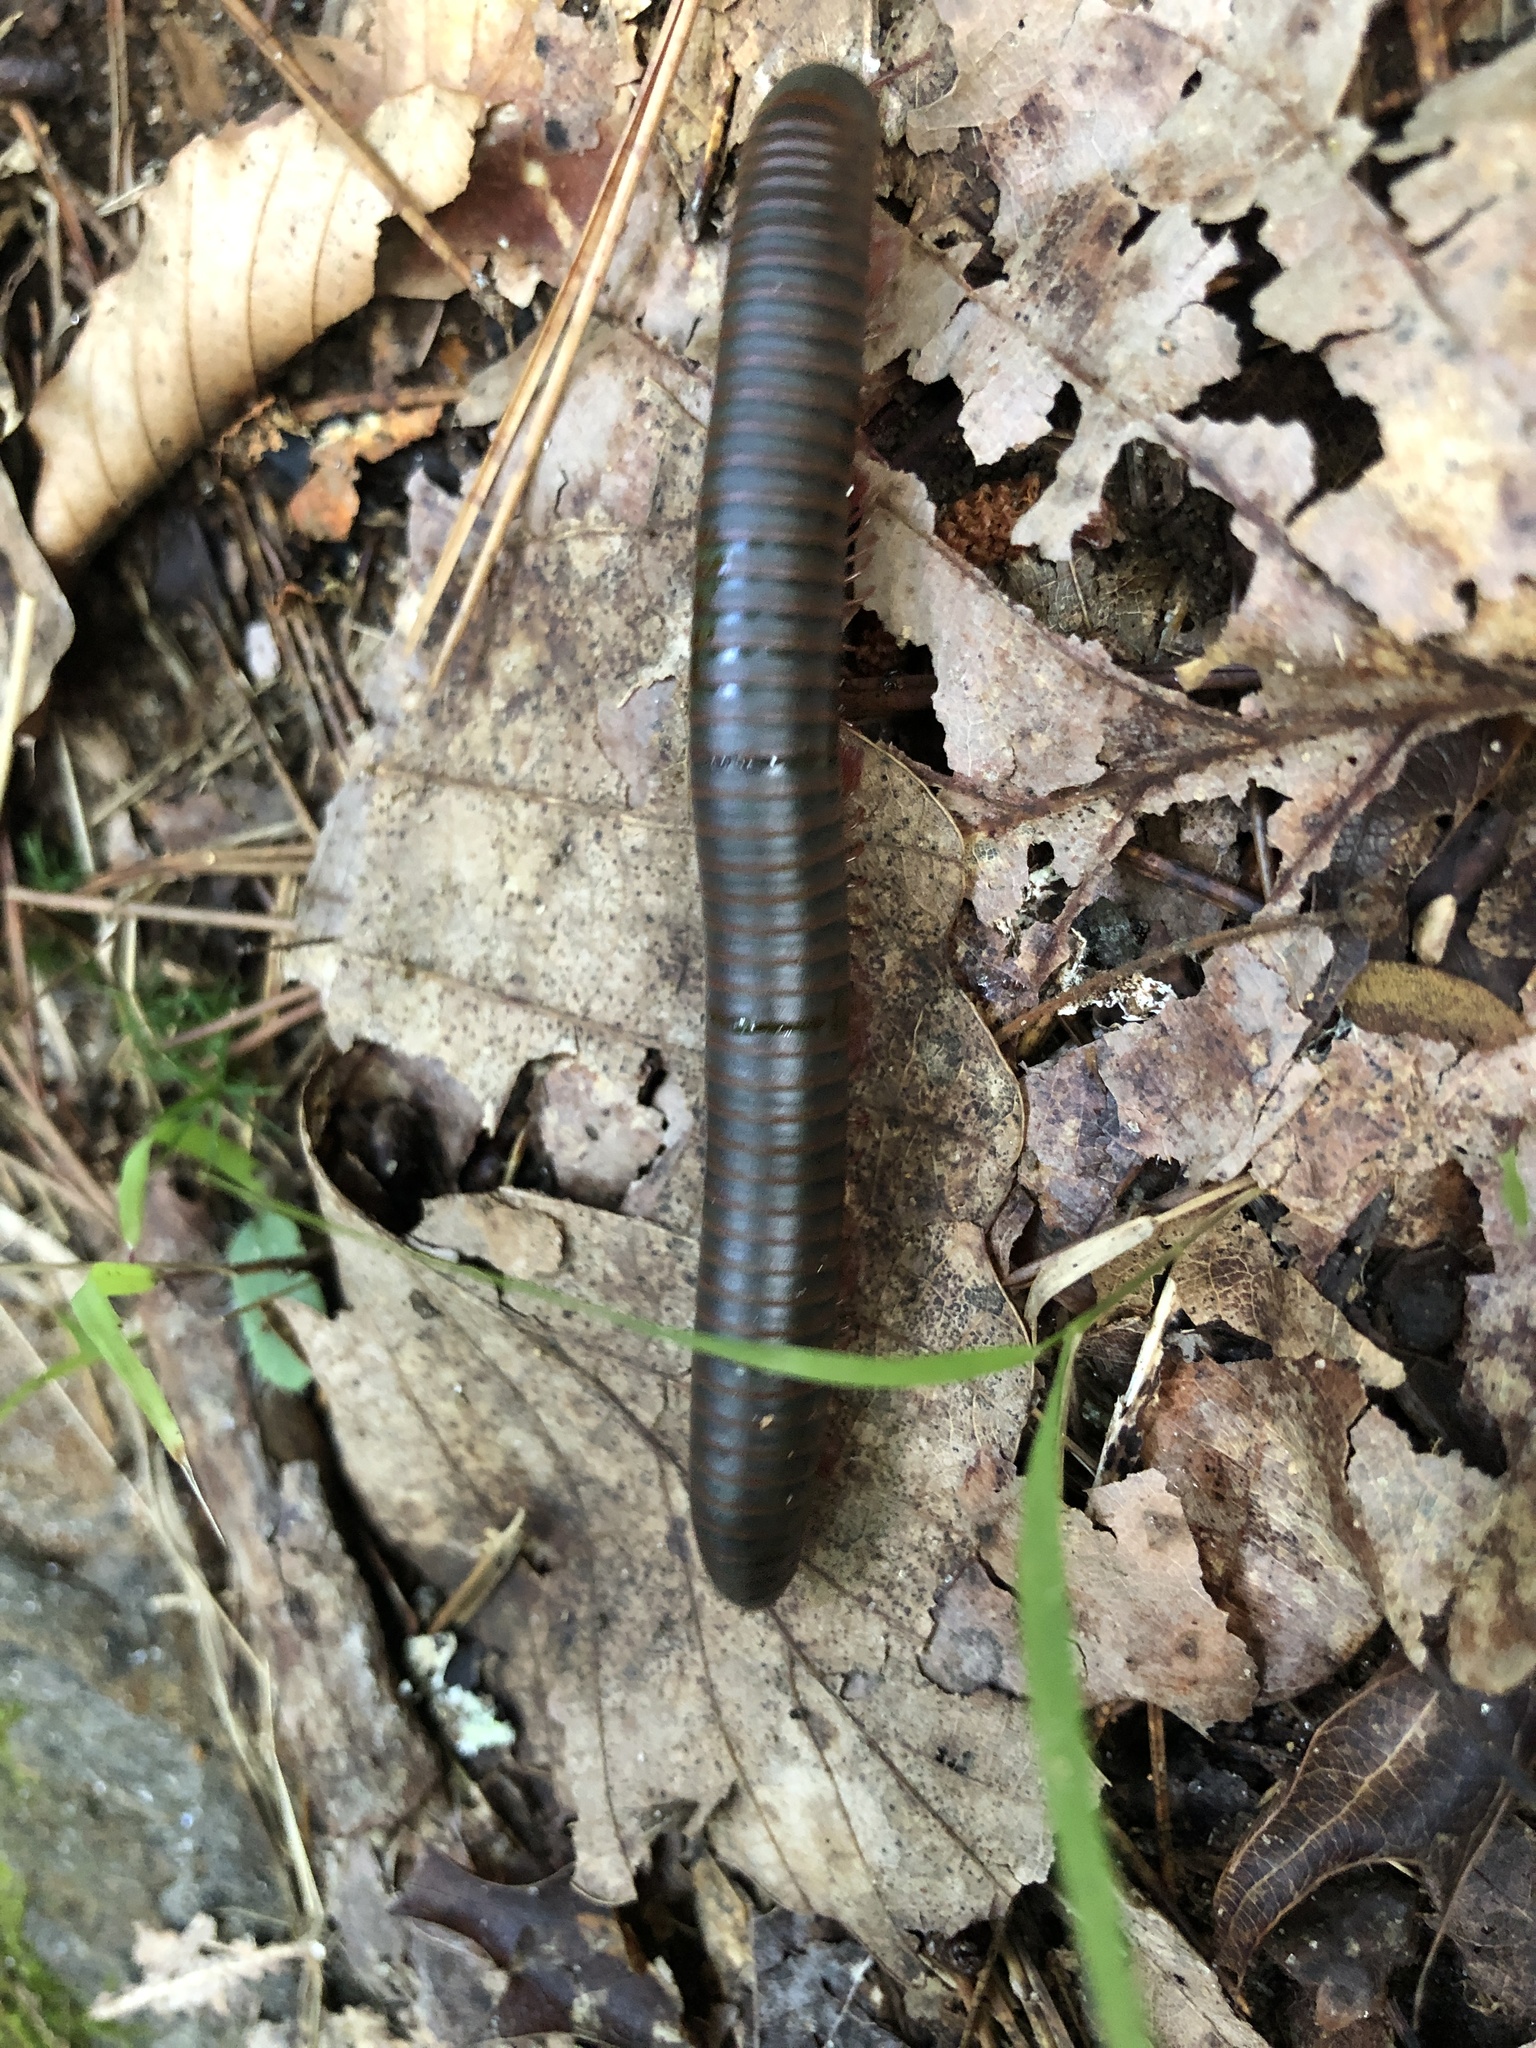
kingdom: Animalia
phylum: Arthropoda
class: Diplopoda
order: Spirobolida
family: Spirobolidae
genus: Narceus
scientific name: Narceus
